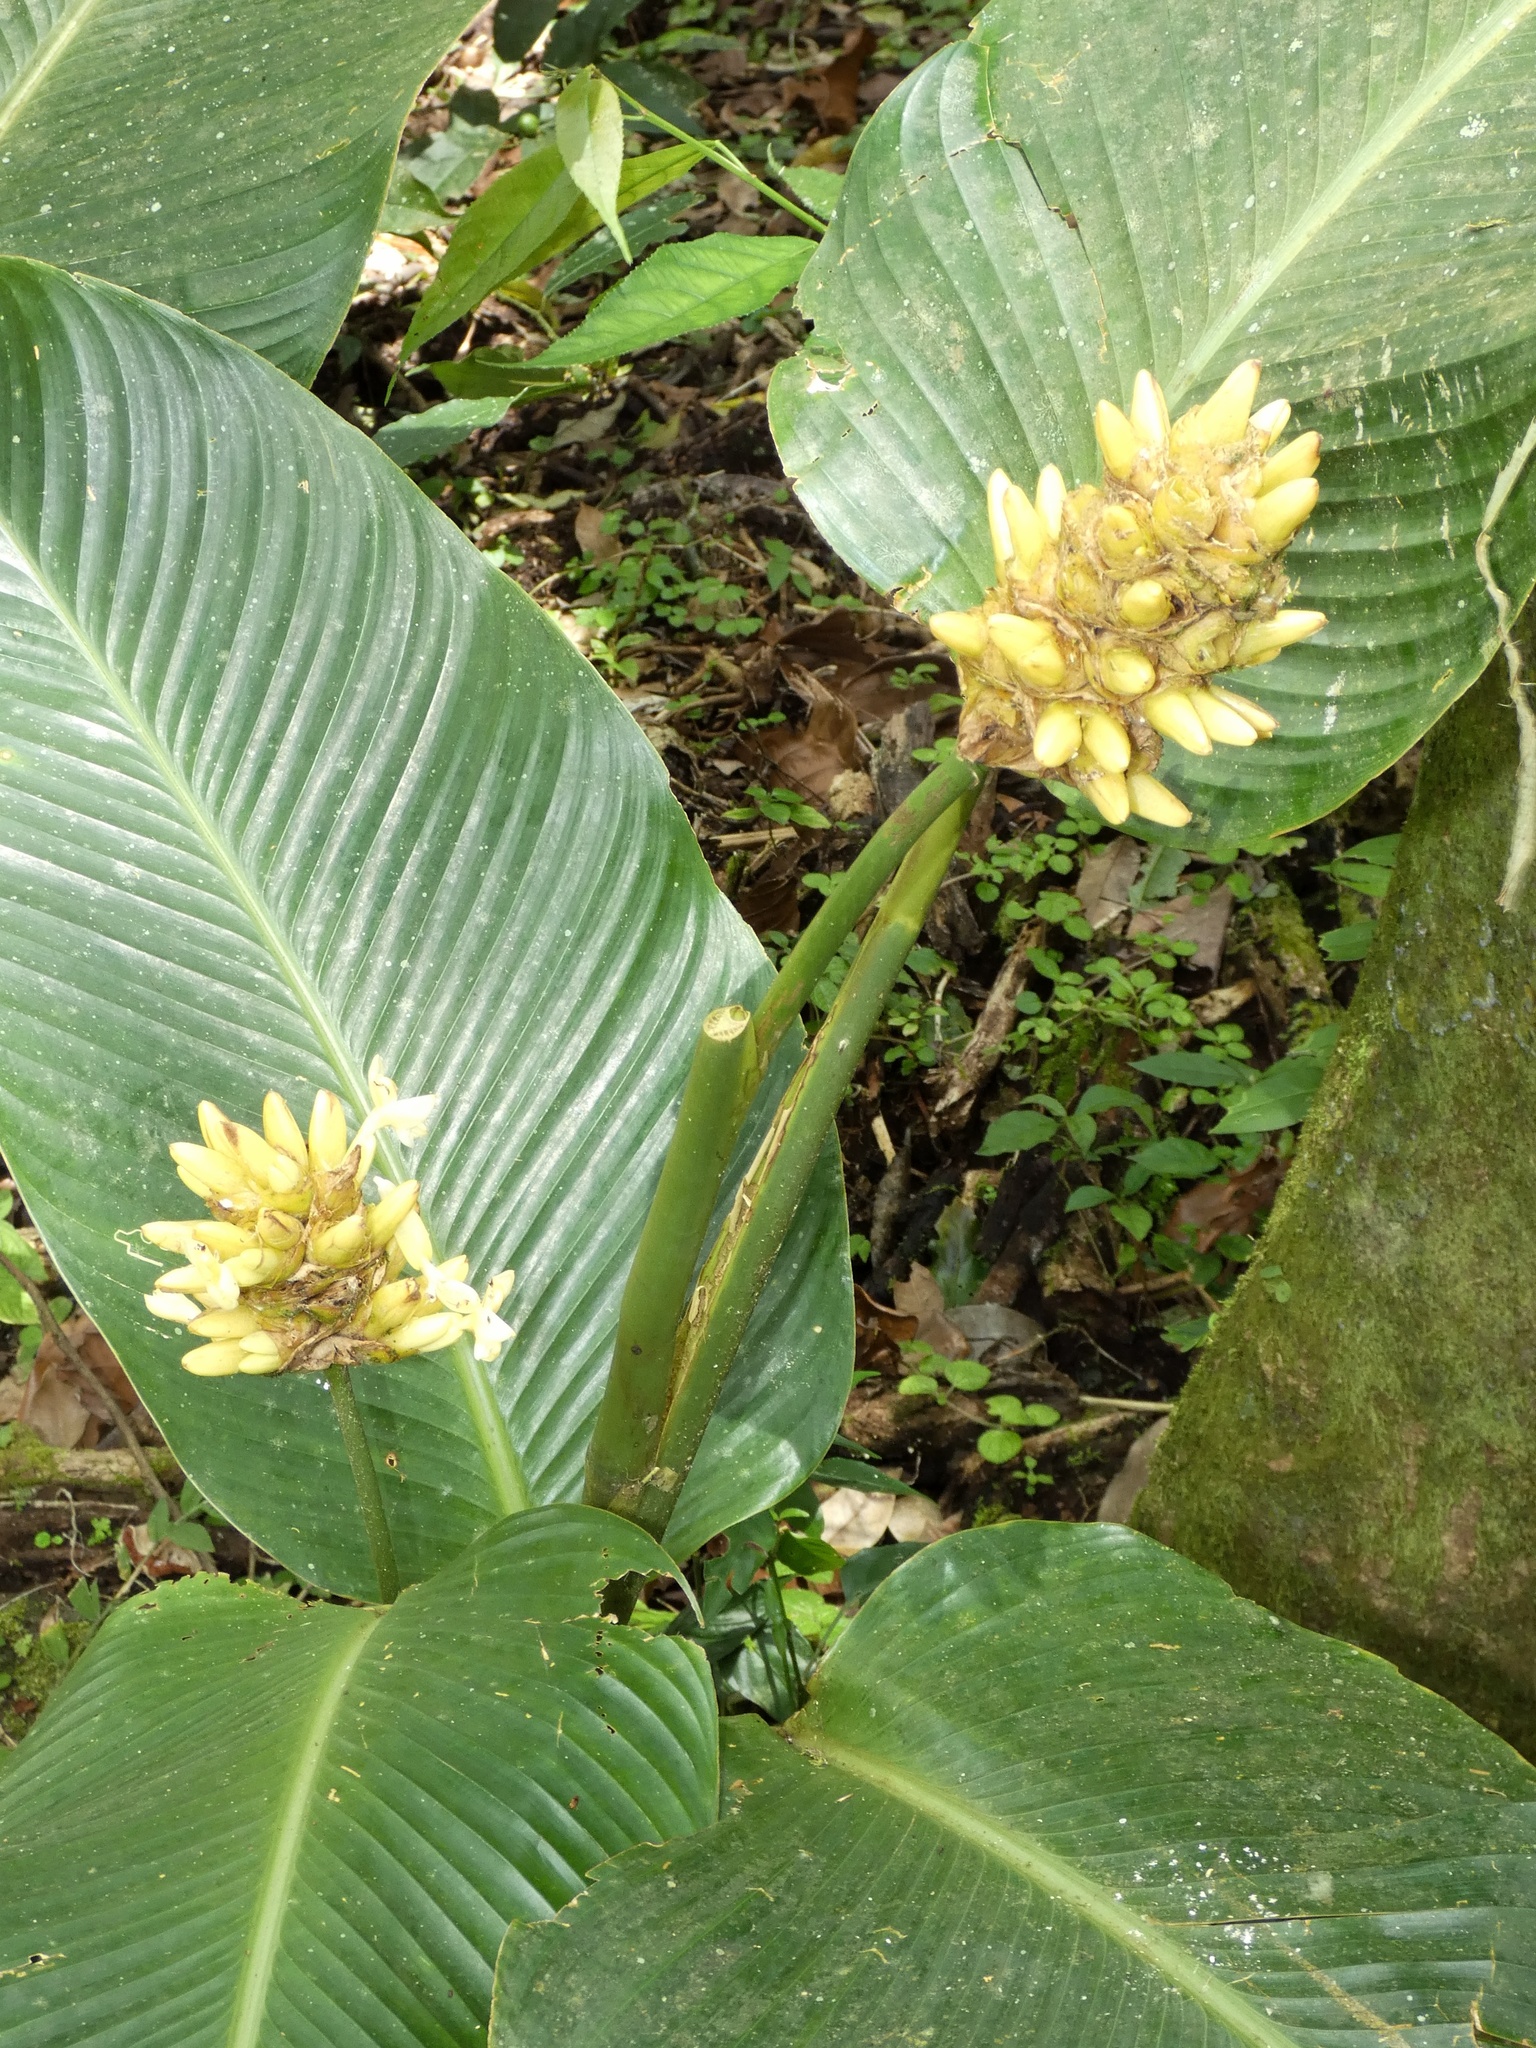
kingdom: Plantae
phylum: Tracheophyta
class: Liliopsida
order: Zingiberales
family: Marantaceae
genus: Goeppertia
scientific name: Goeppertia marantifolia
